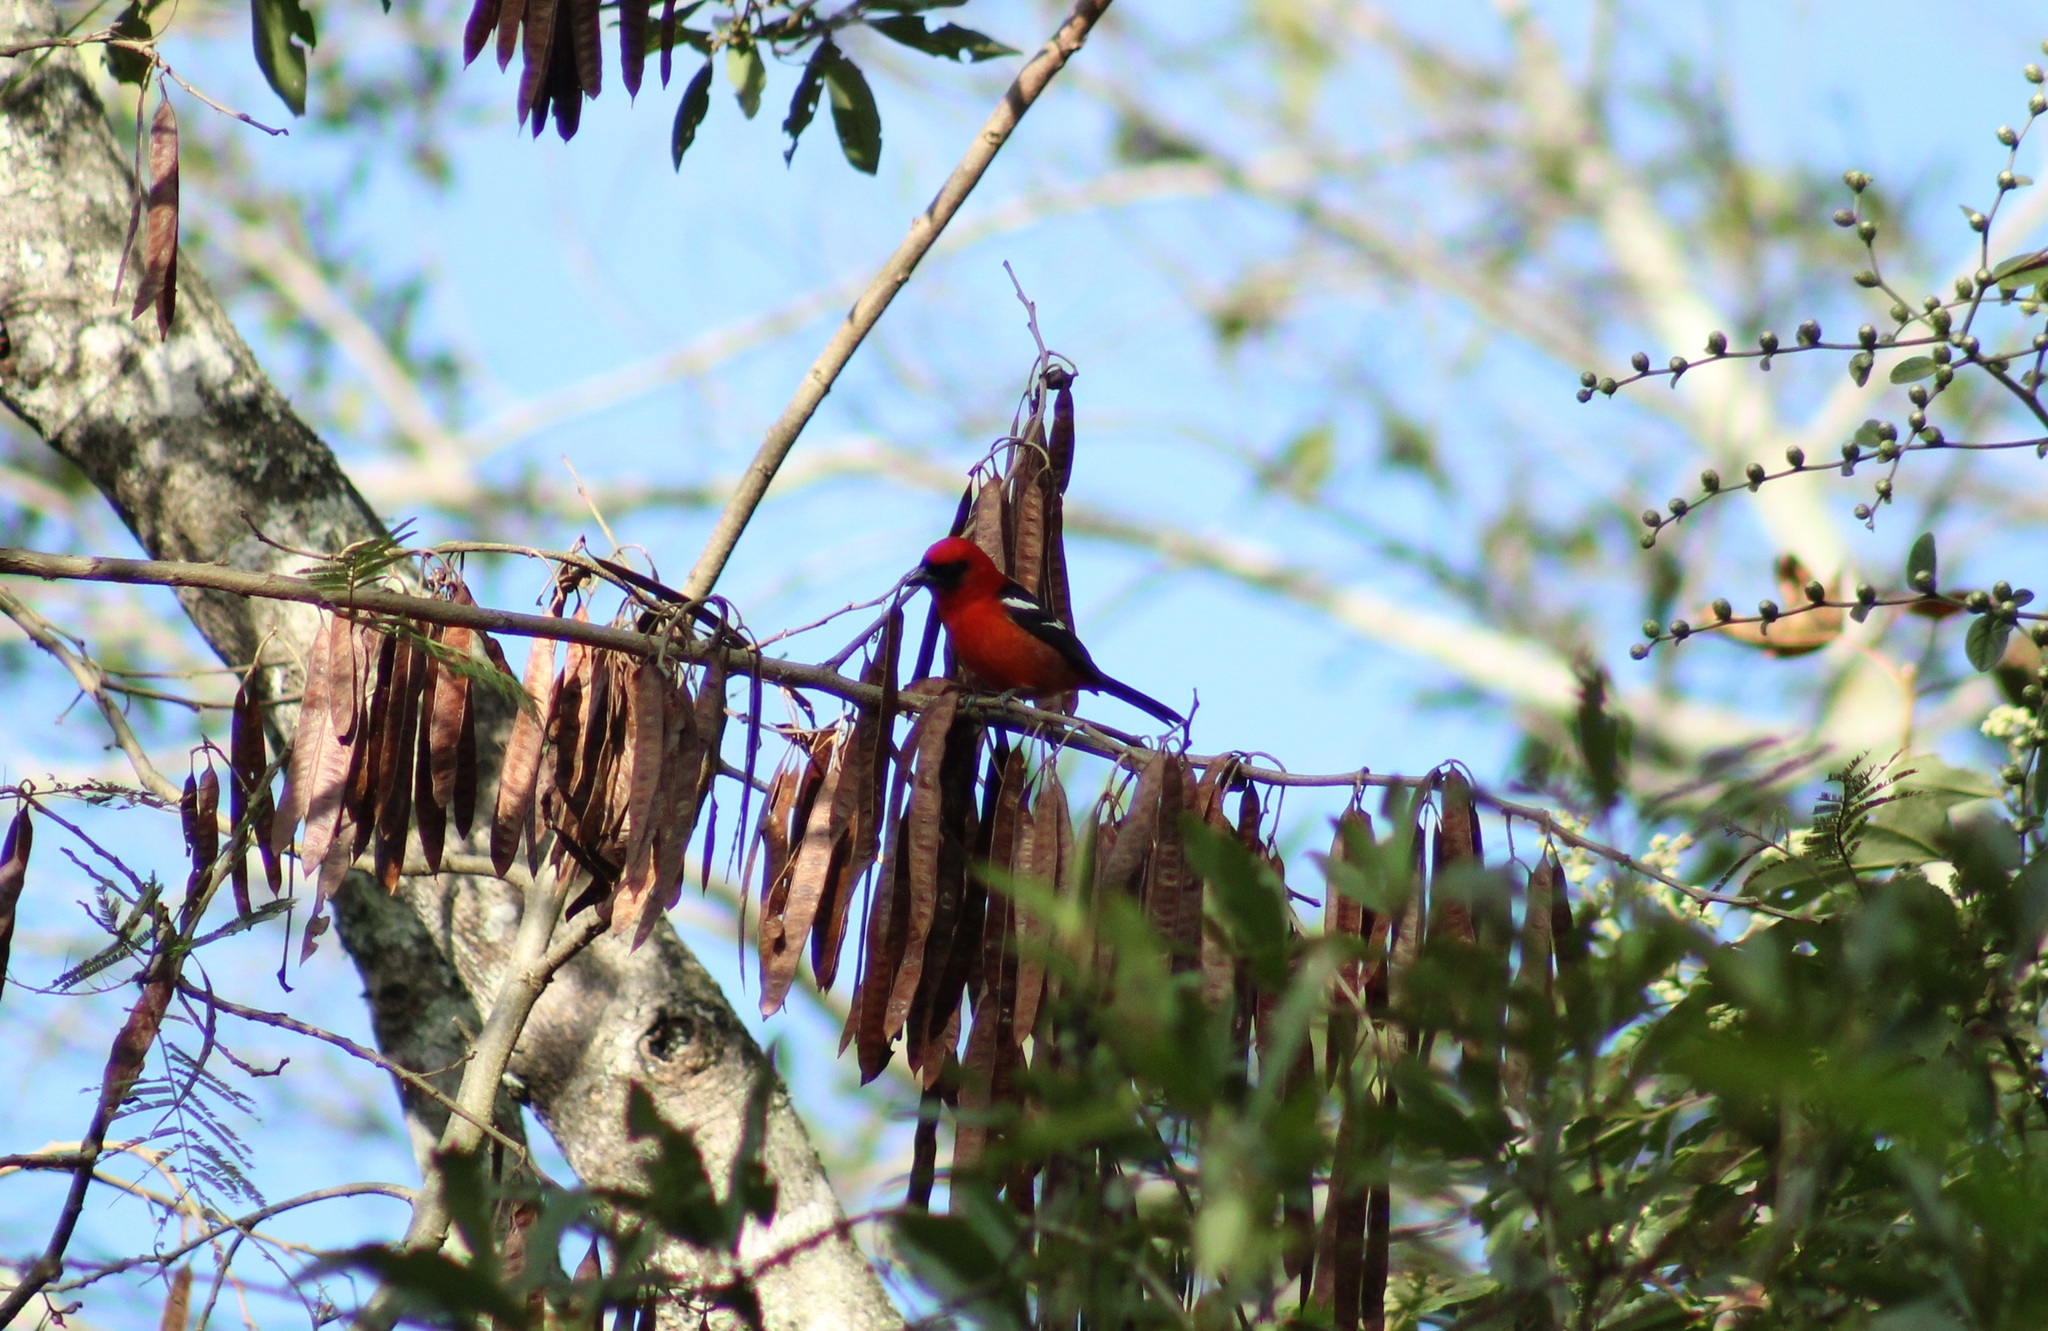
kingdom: Animalia
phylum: Chordata
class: Aves
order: Passeriformes
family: Cardinalidae
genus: Piranga
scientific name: Piranga leucoptera
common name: White-winged tanager
